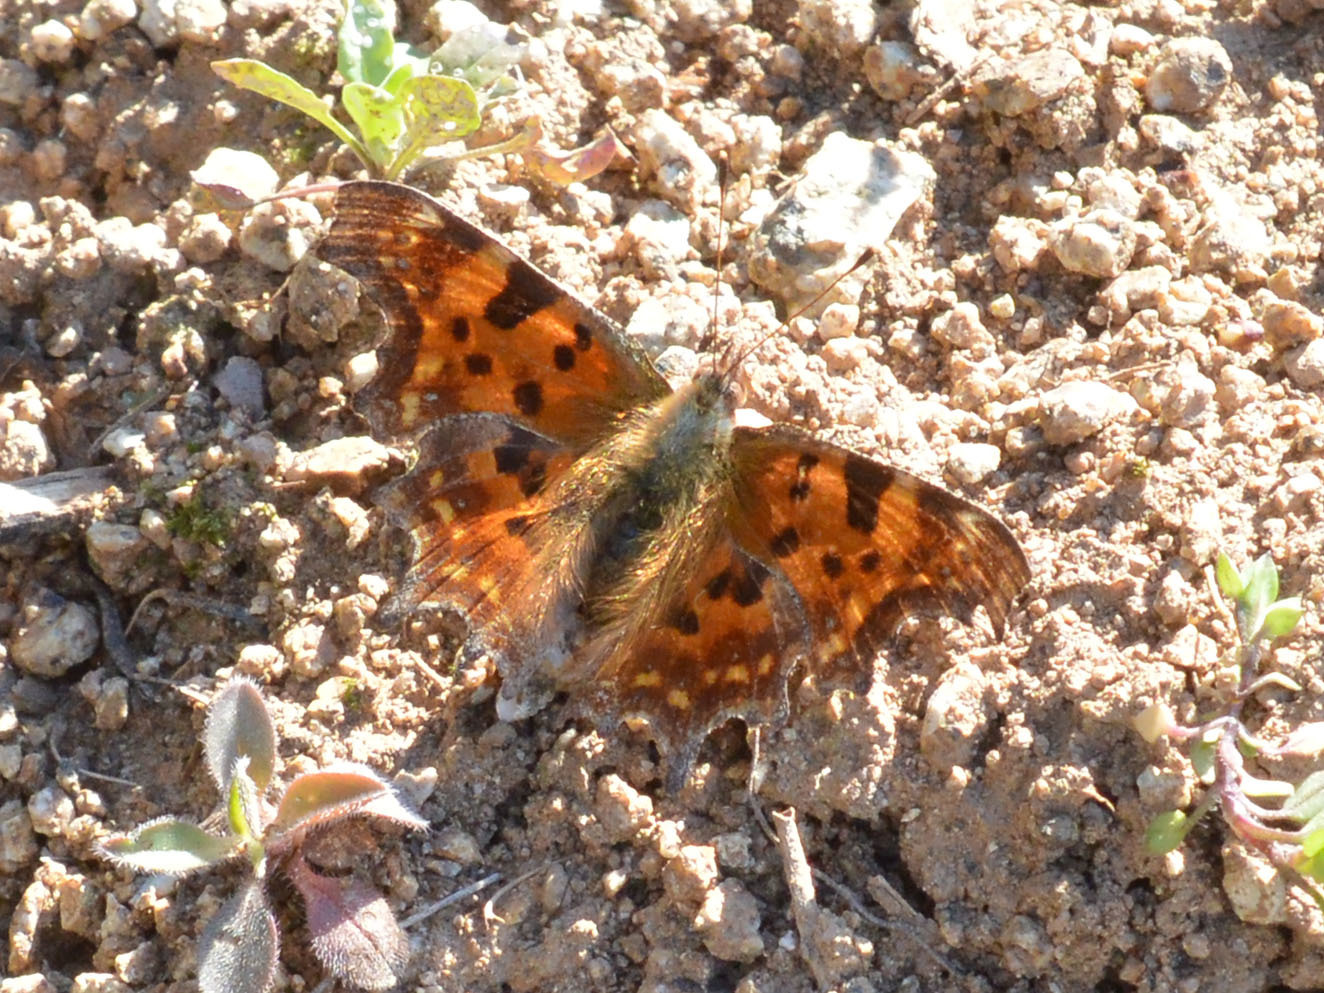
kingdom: Animalia
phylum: Arthropoda
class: Insecta
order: Lepidoptera
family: Nymphalidae
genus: Polygonia
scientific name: Polygonia c-album
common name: Comma
